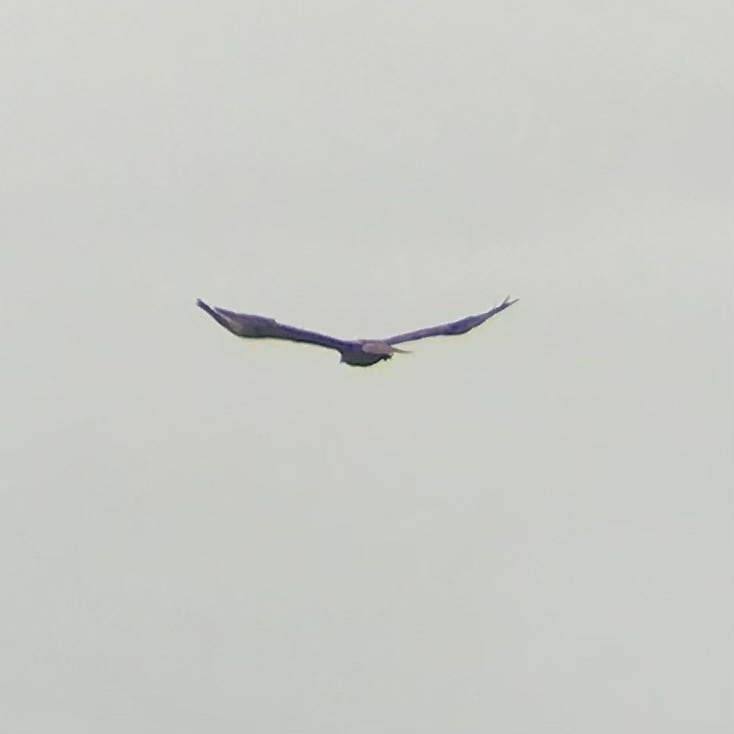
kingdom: Animalia
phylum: Chordata
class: Aves
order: Accipitriformes
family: Accipitridae
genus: Buteo
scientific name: Buteo jamaicensis
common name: Red-tailed hawk
